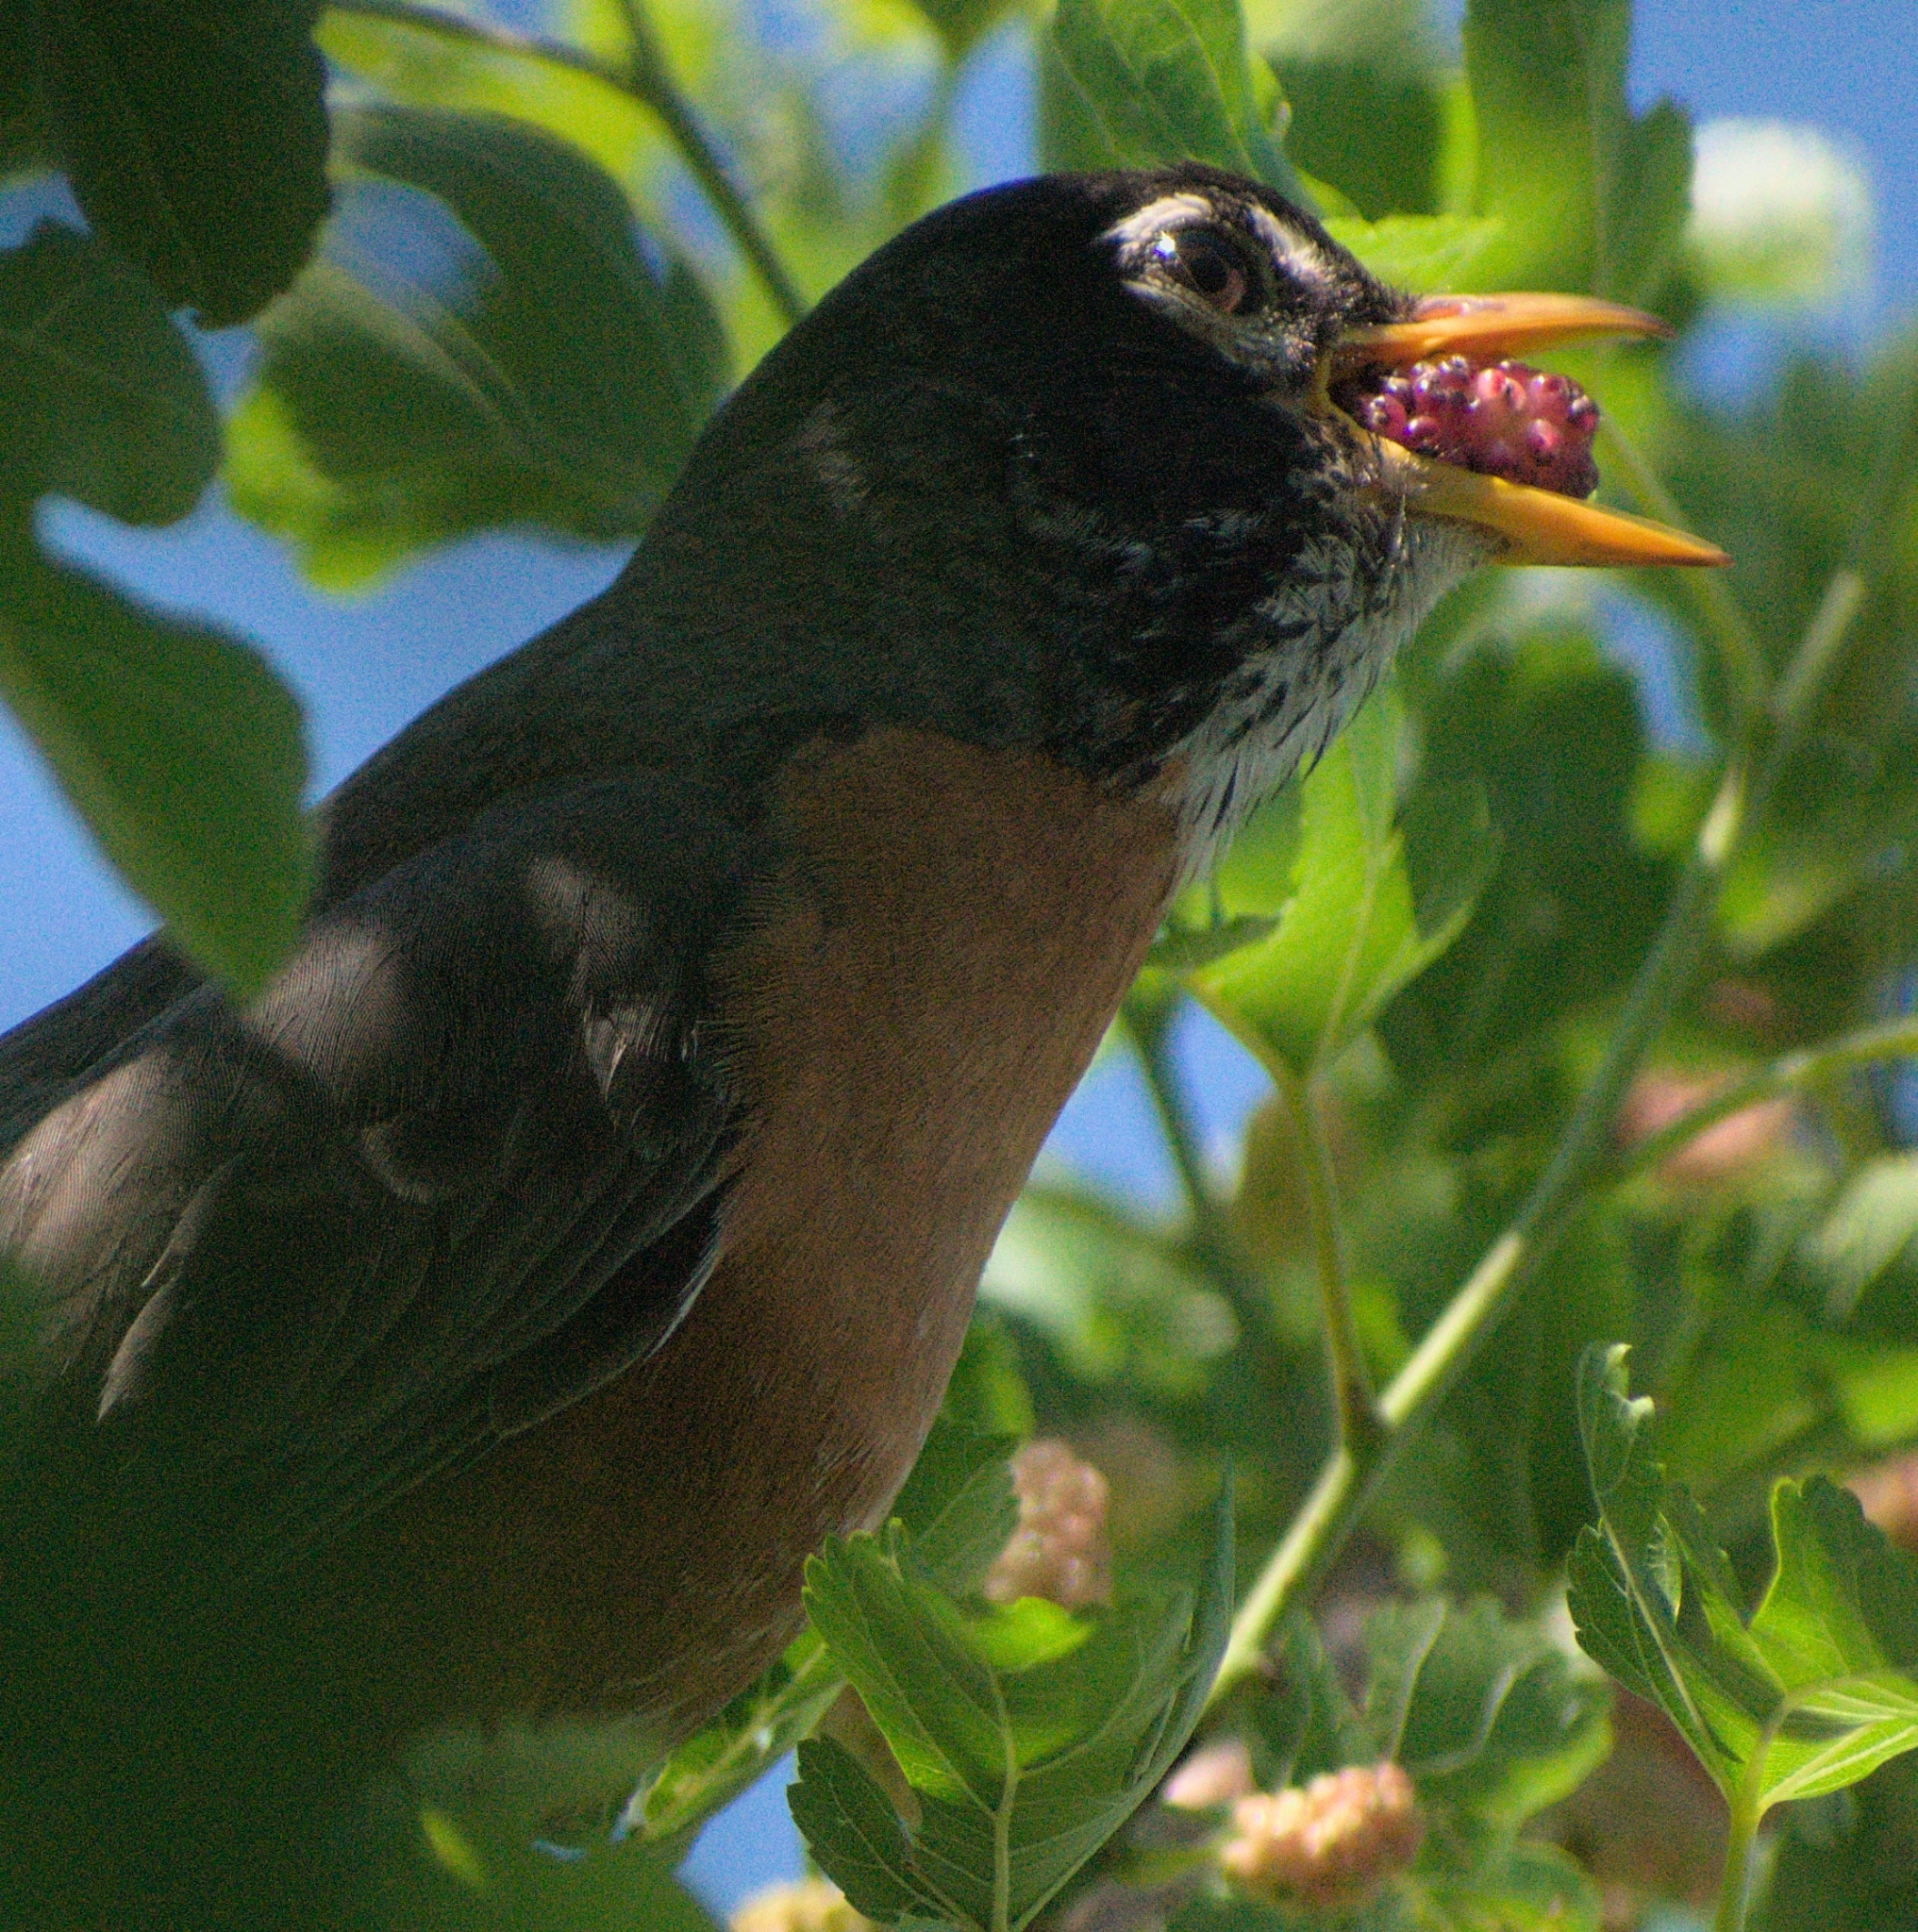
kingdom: Animalia
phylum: Chordata
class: Aves
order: Passeriformes
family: Turdidae
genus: Turdus
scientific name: Turdus migratorius
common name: American robin
